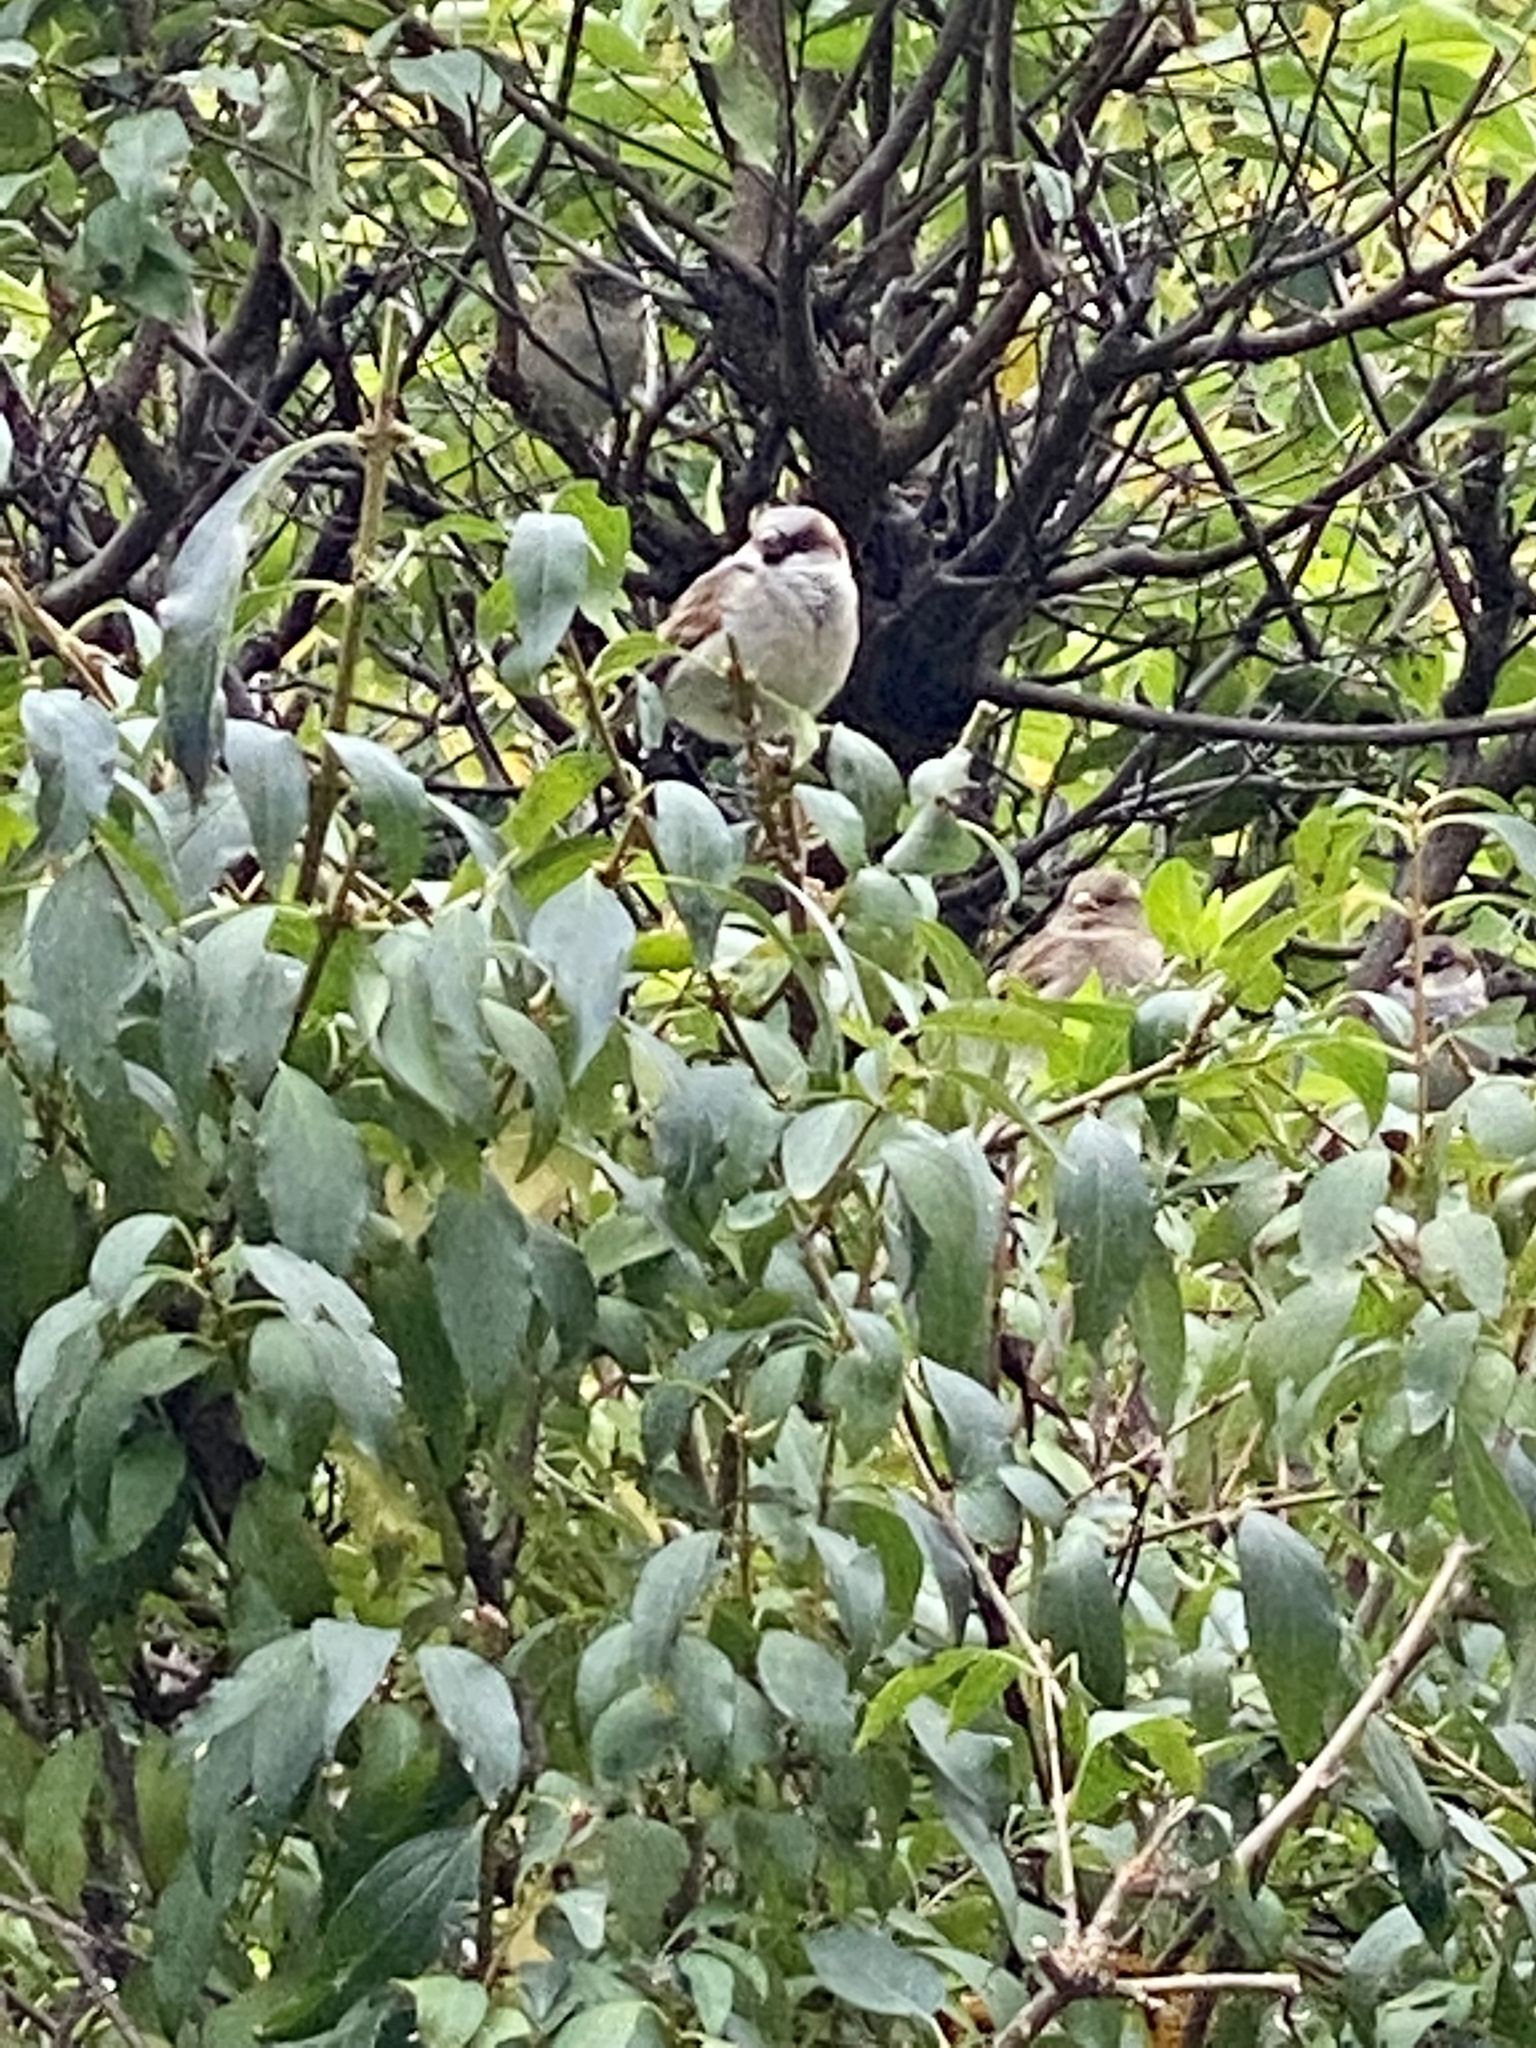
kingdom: Animalia
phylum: Chordata
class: Aves
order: Passeriformes
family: Passeridae
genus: Passer
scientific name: Passer domesticus
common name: House sparrow
